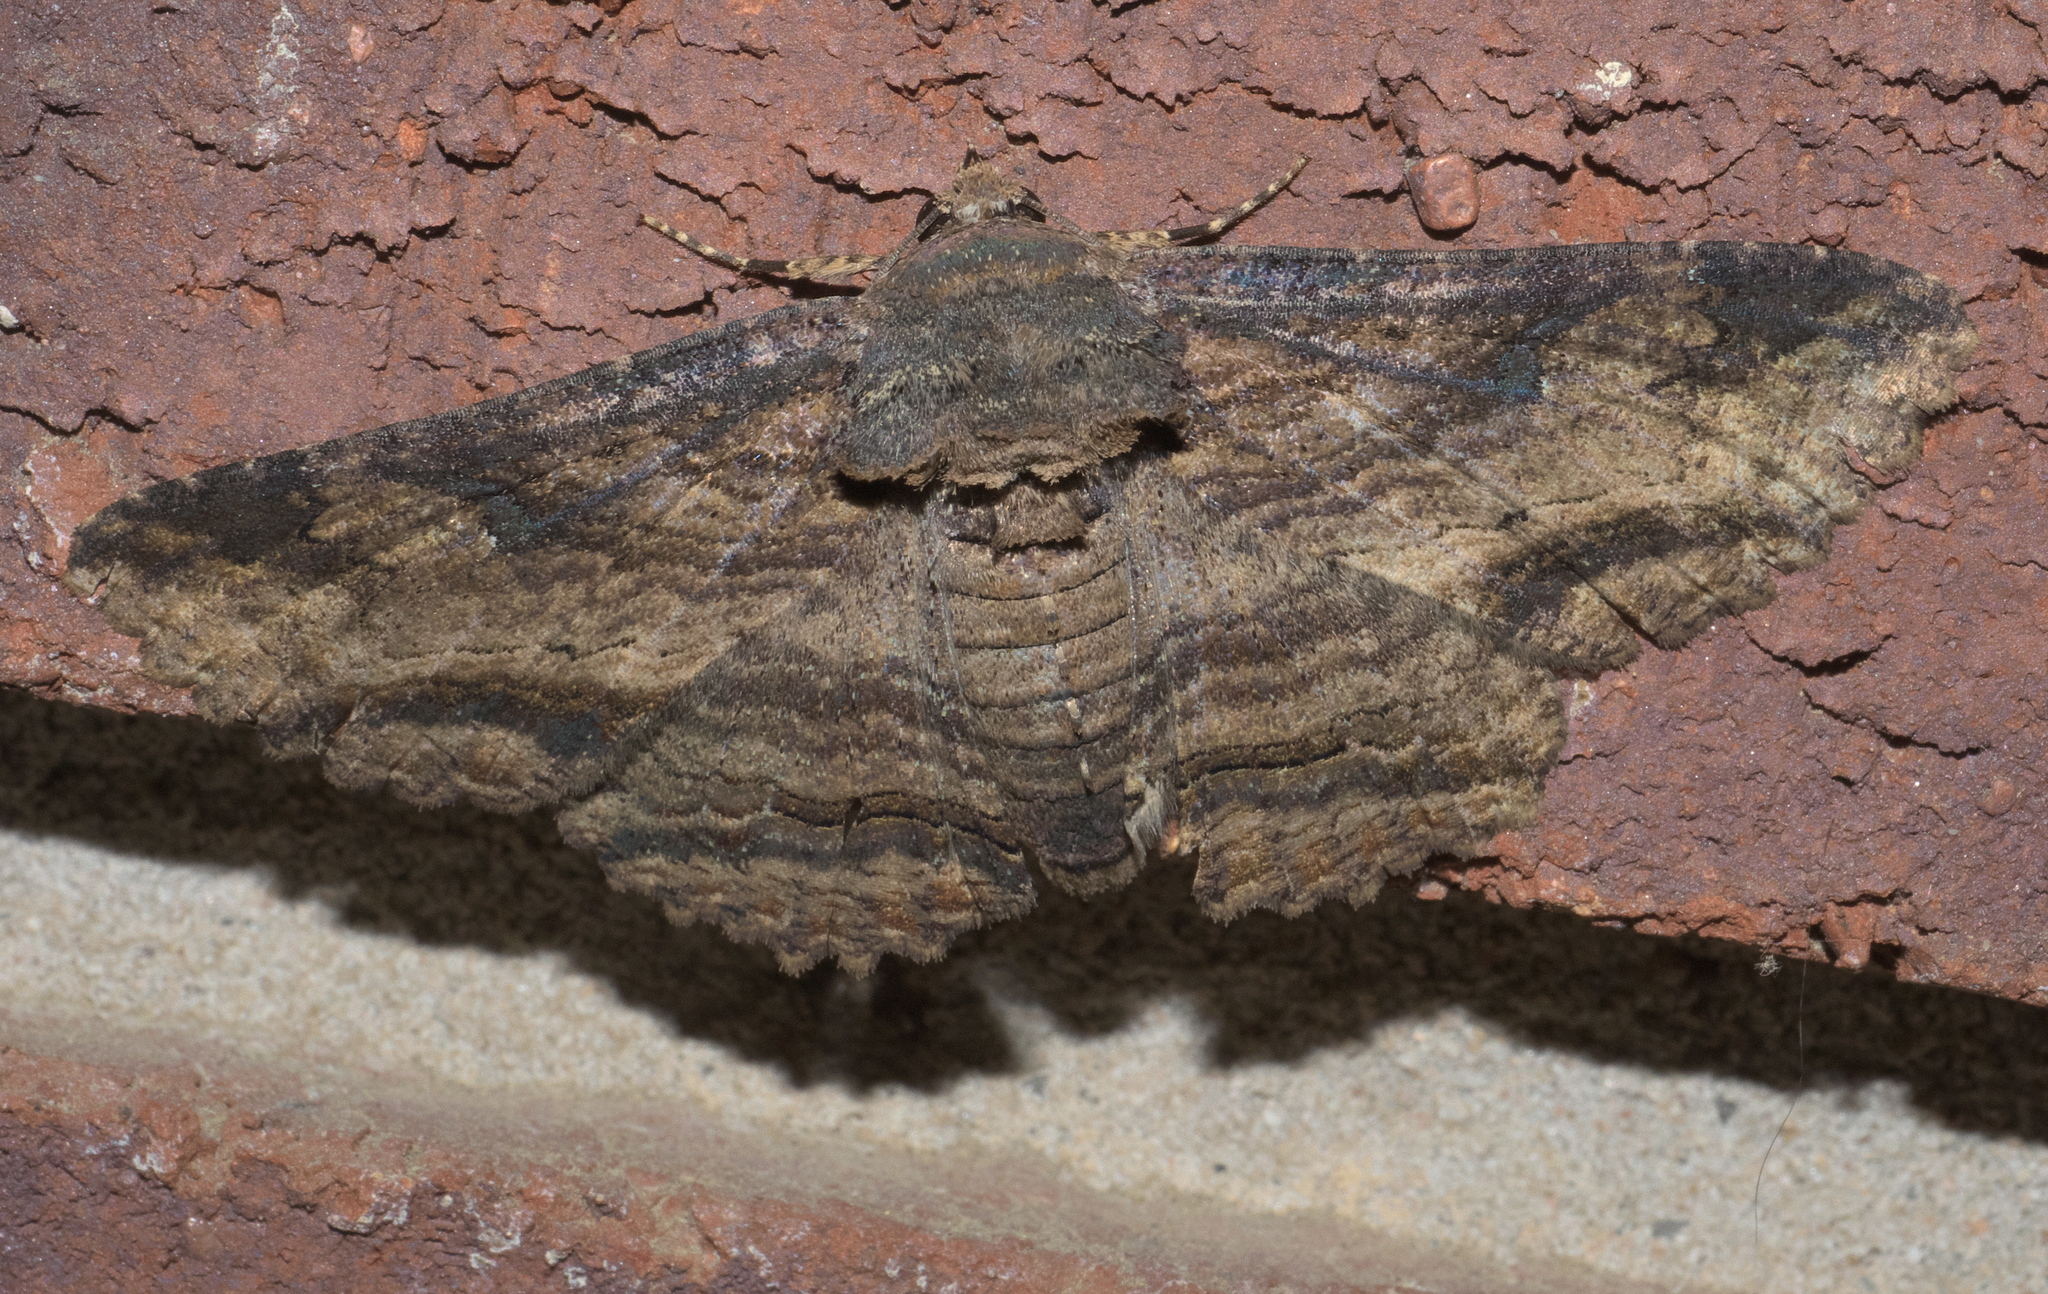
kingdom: Animalia
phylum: Arthropoda
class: Insecta
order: Lepidoptera
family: Erebidae
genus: Zale
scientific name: Zale lunata
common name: Lunate zale moth
